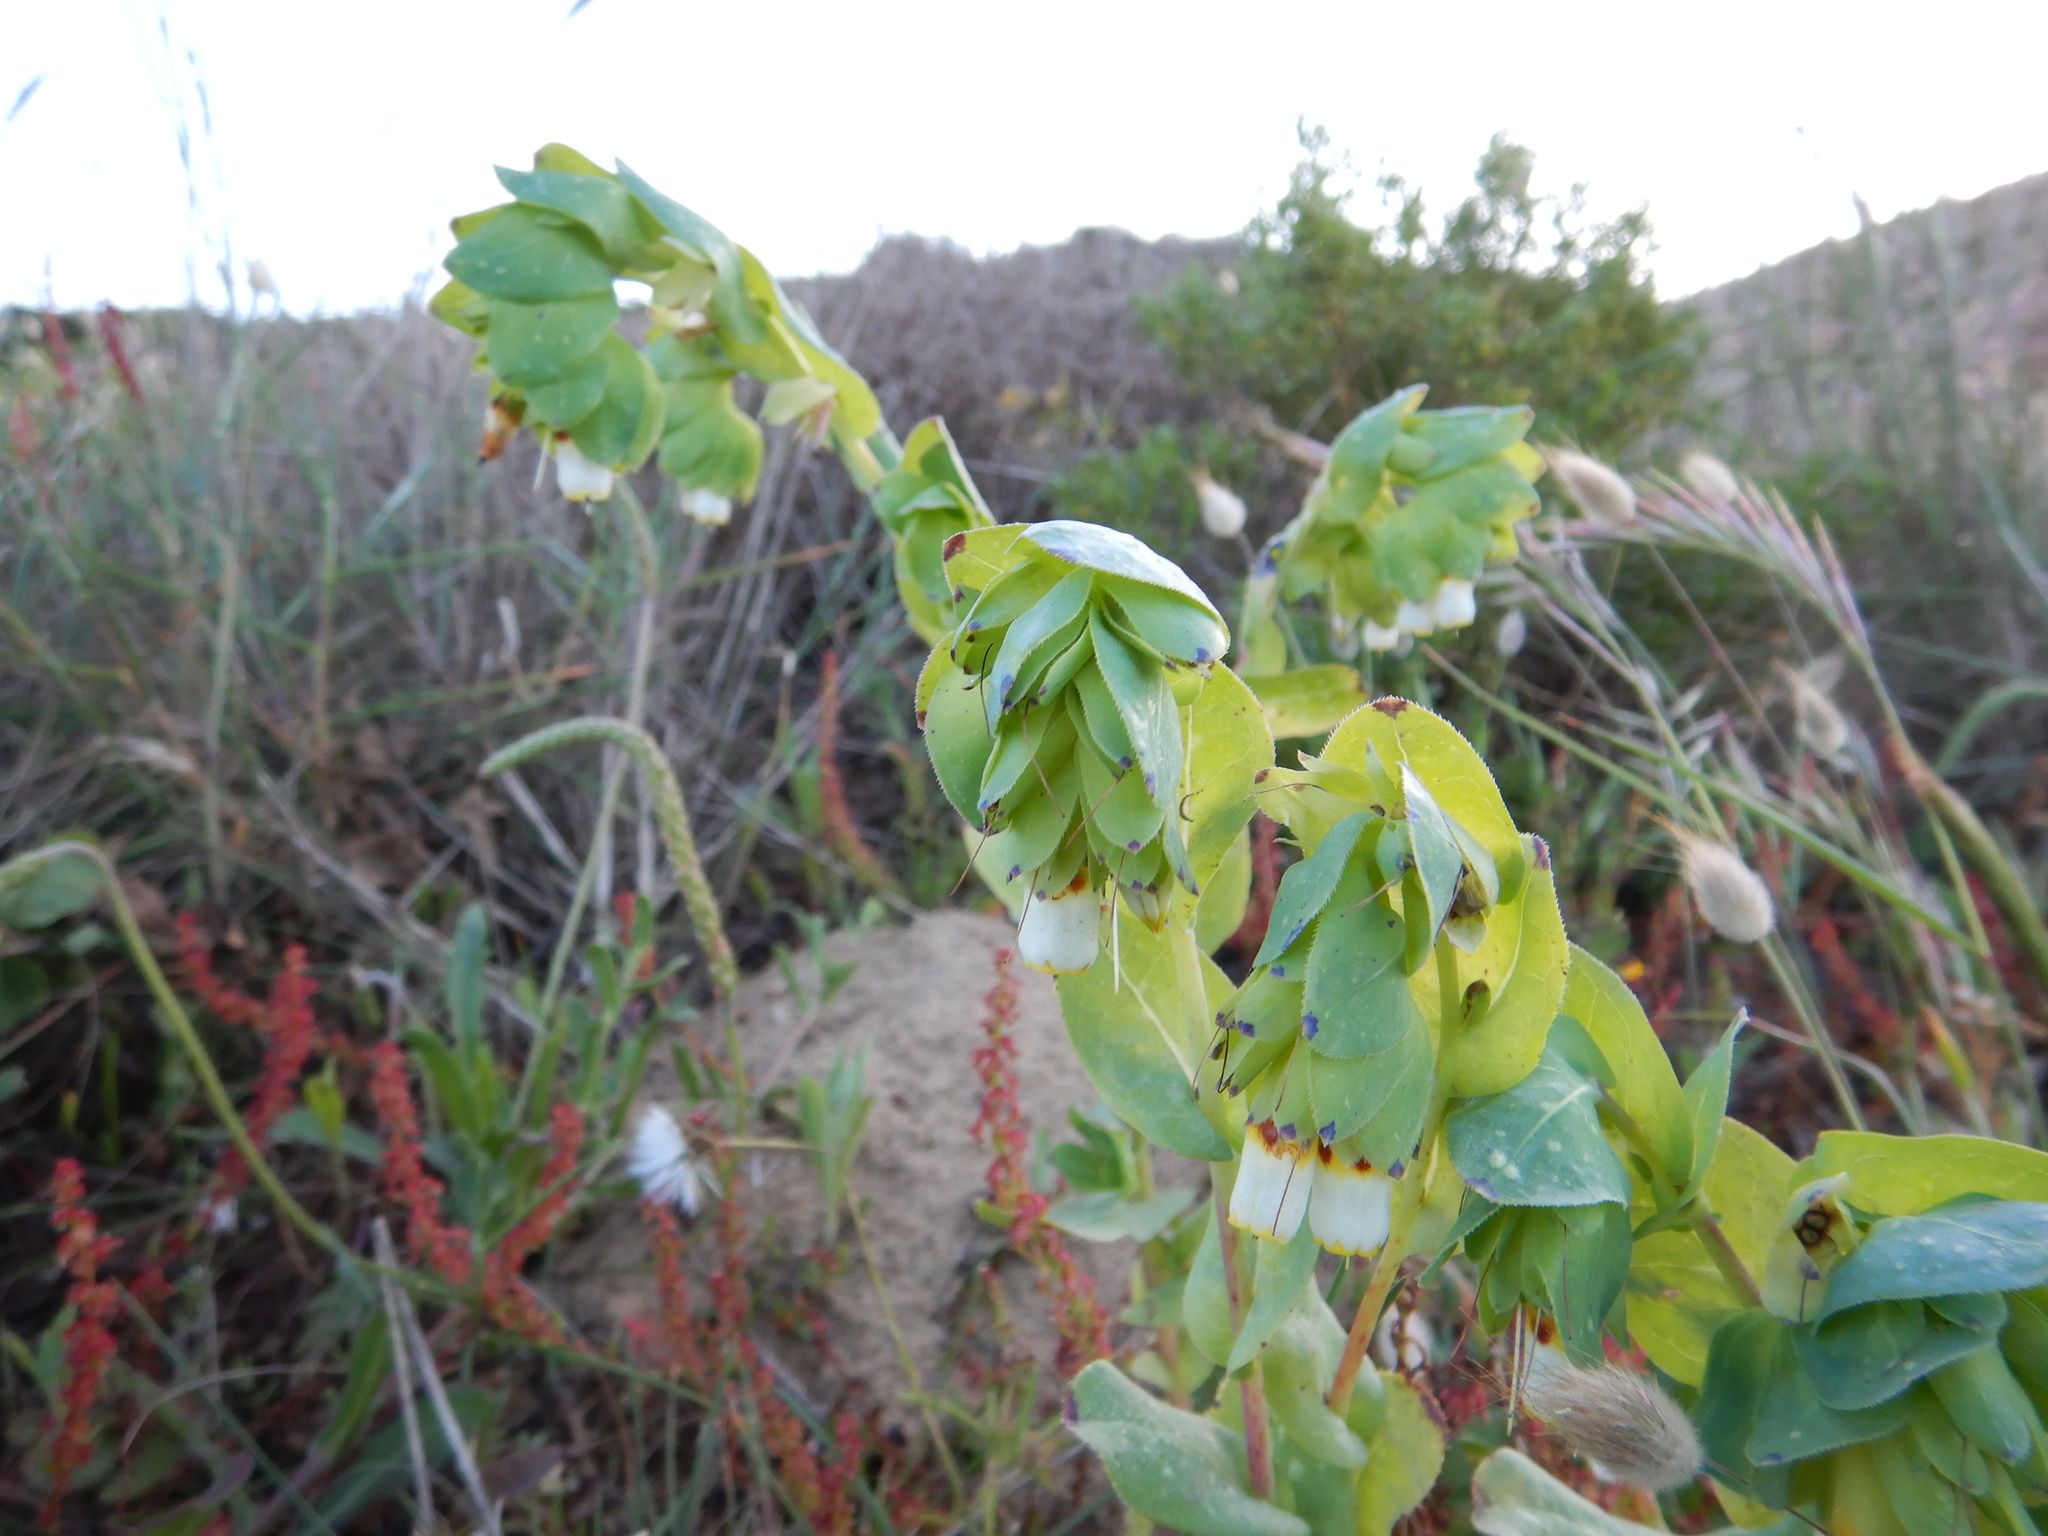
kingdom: Plantae
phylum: Tracheophyta
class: Magnoliopsida
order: Boraginales
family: Boraginaceae
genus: Cerinthe
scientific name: Cerinthe major
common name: Greater honeywort
